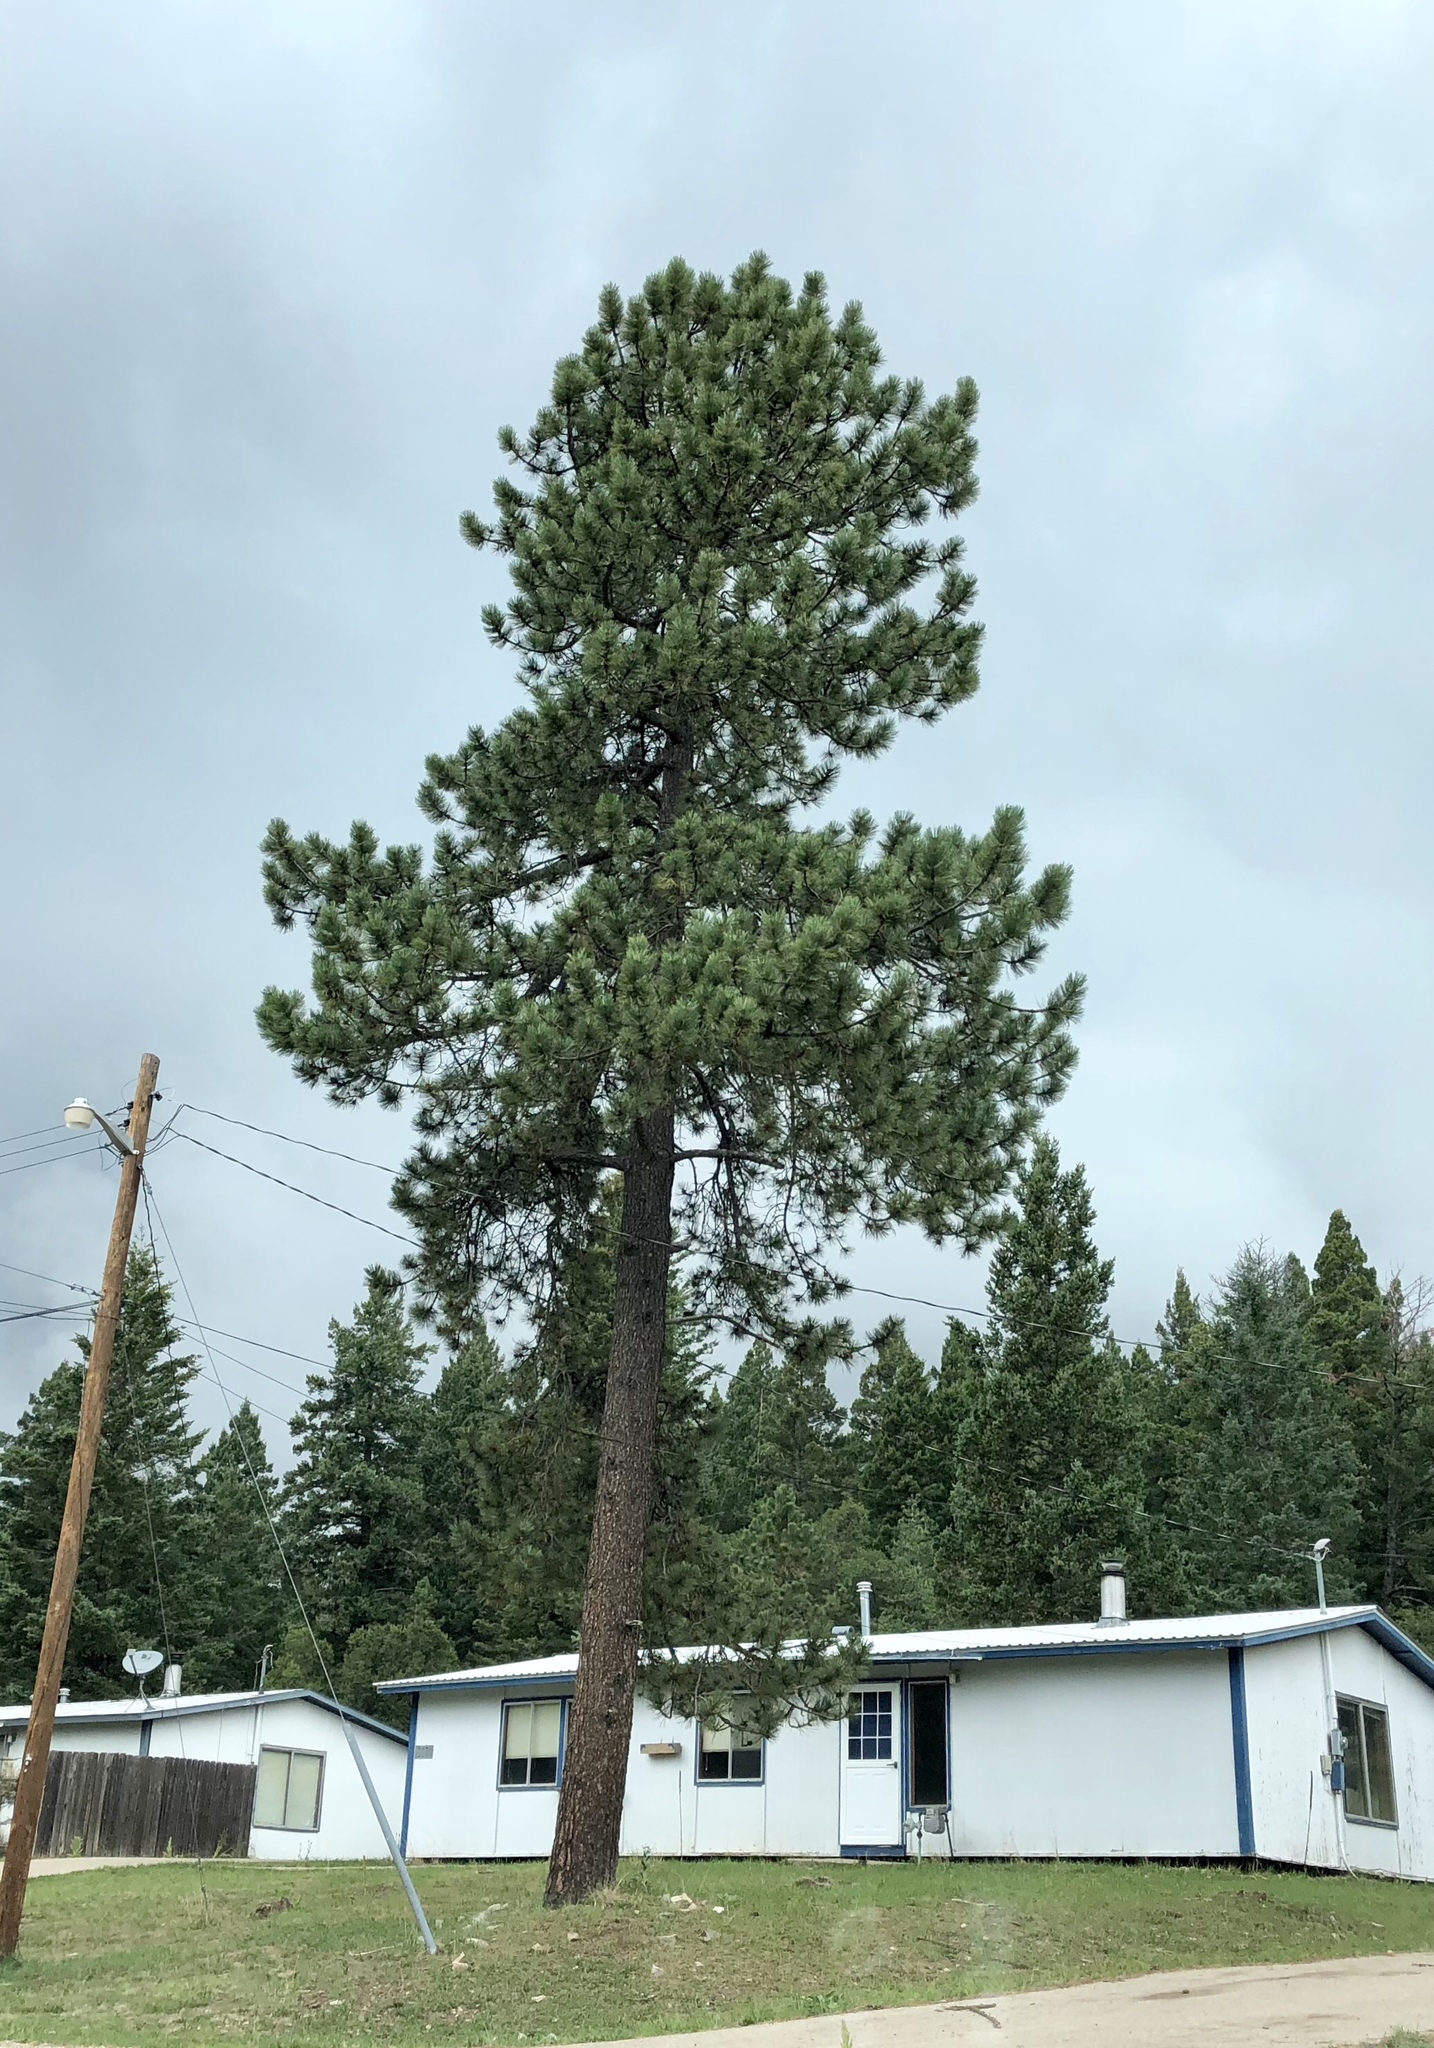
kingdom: Plantae
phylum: Tracheophyta
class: Pinopsida
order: Pinales
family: Pinaceae
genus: Pinus
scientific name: Pinus ponderosa
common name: Western yellow-pine
